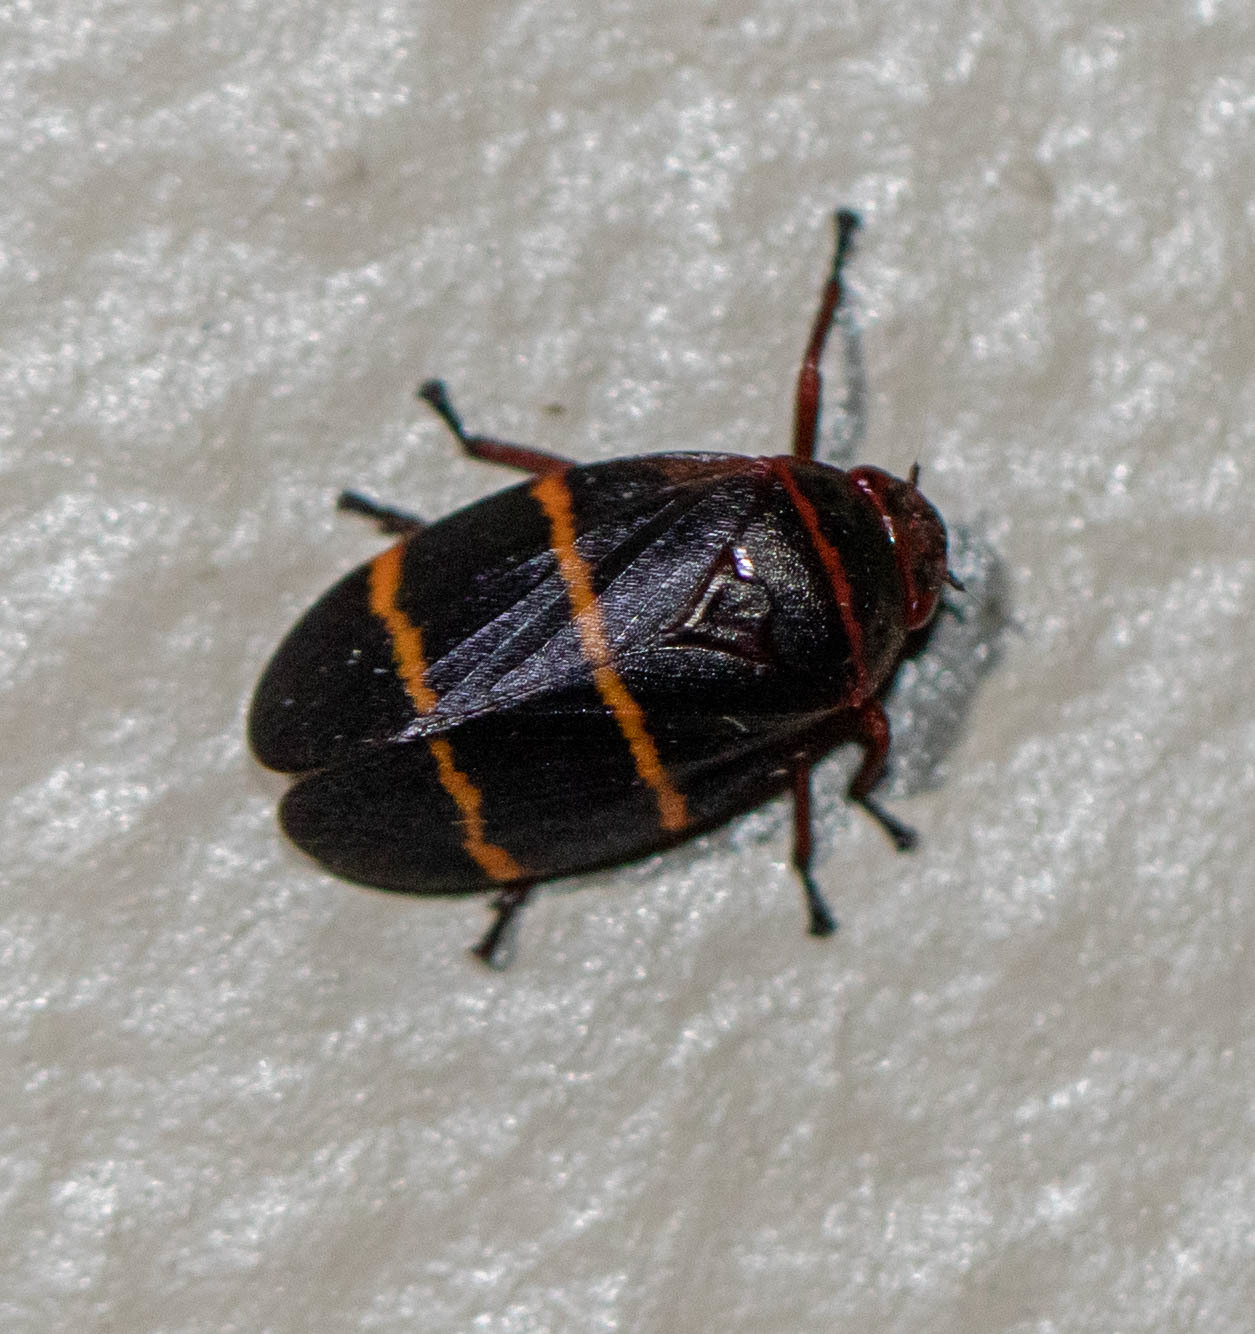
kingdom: Animalia
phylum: Arthropoda
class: Insecta
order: Hemiptera
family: Cercopidae
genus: Prosapia
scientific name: Prosapia bicincta
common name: Twolined spittlebug
